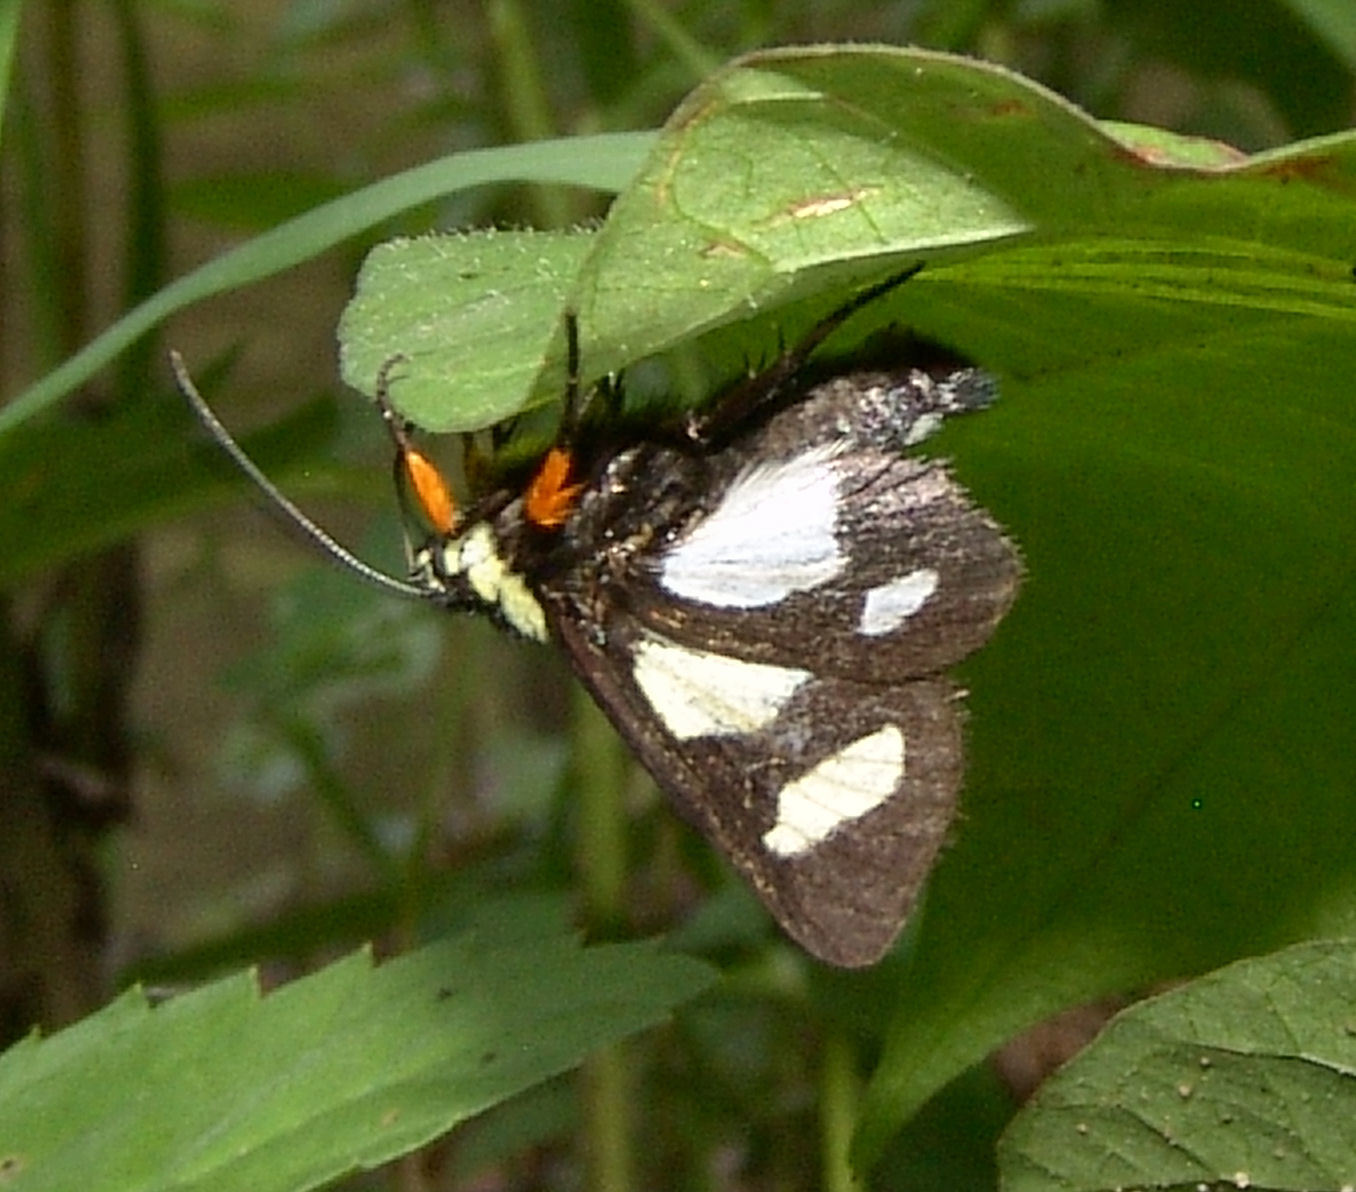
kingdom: Animalia
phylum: Arthropoda
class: Insecta
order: Lepidoptera
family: Noctuidae
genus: Alypia
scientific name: Alypia octomaculata
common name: Eight-spotted forester
